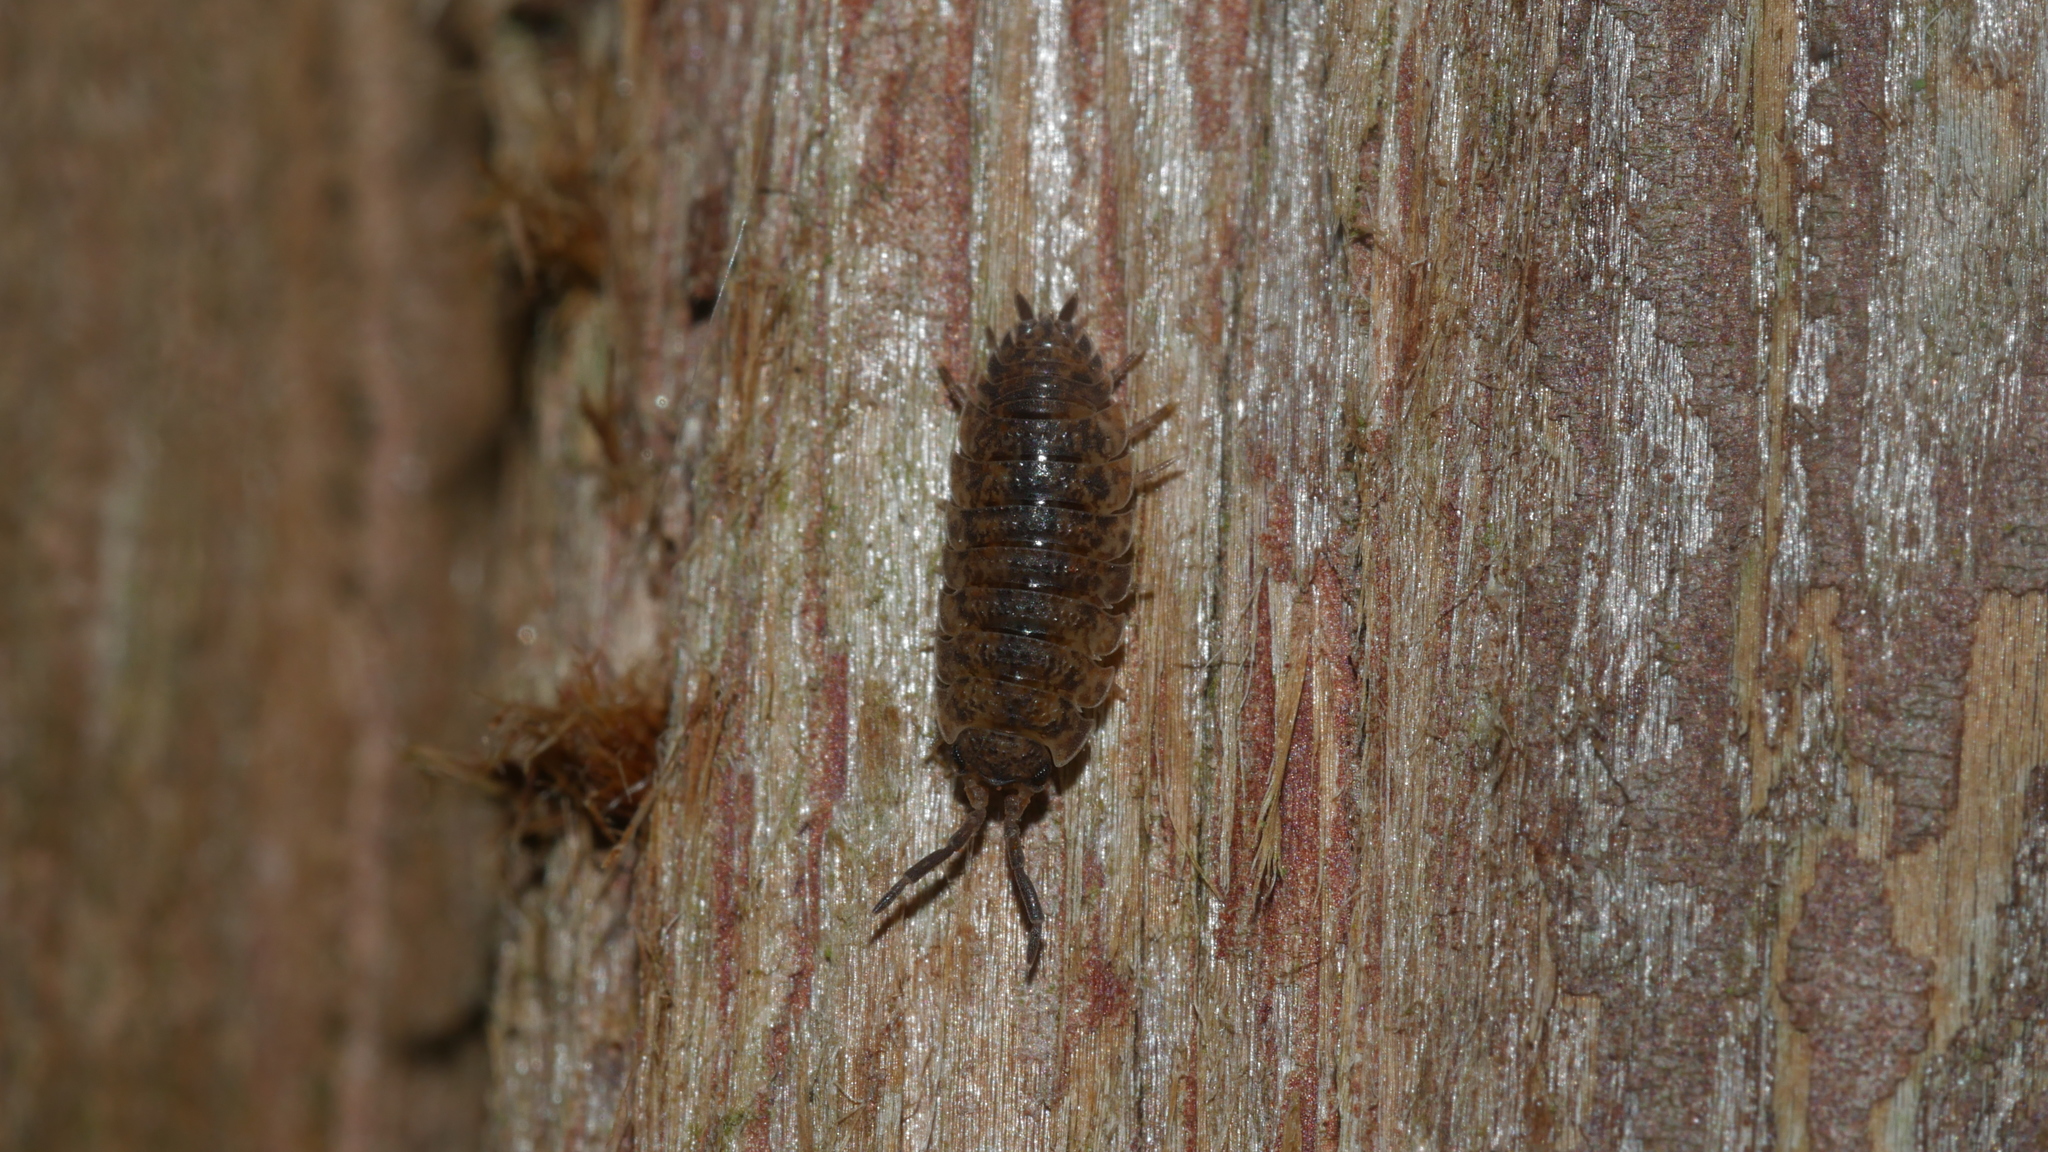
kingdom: Animalia
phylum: Arthropoda
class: Malacostraca
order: Isopoda
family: Porcellionidae
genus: Porcellio
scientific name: Porcellio scaber
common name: Common rough woodlouse
